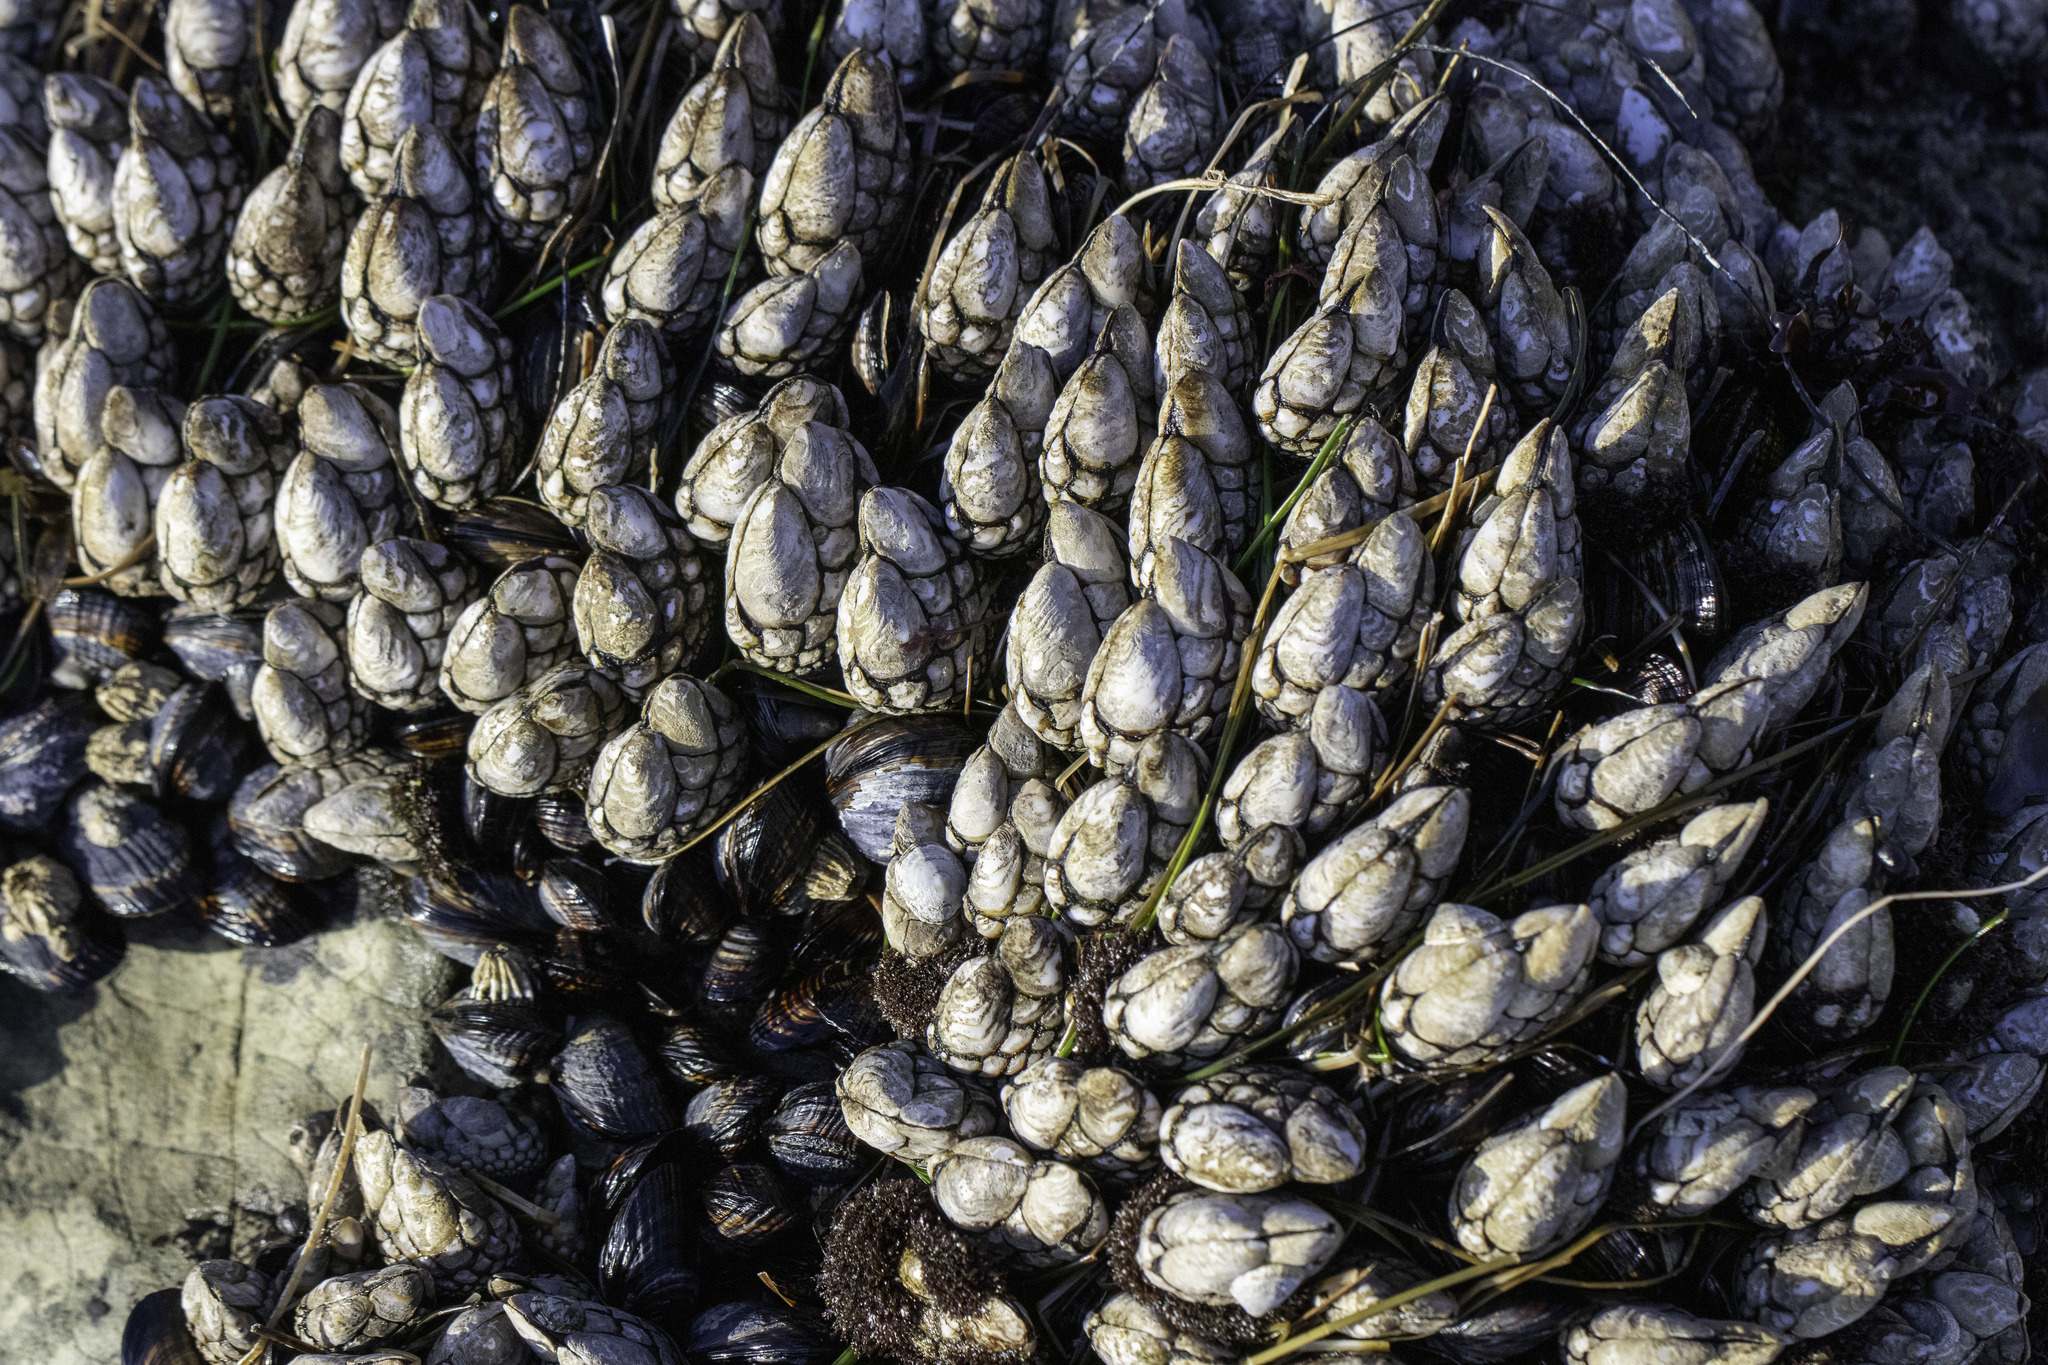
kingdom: Animalia
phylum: Arthropoda
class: Maxillopoda
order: Pedunculata
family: Pollicipedidae
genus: Pollicipes
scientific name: Pollicipes polymerus
